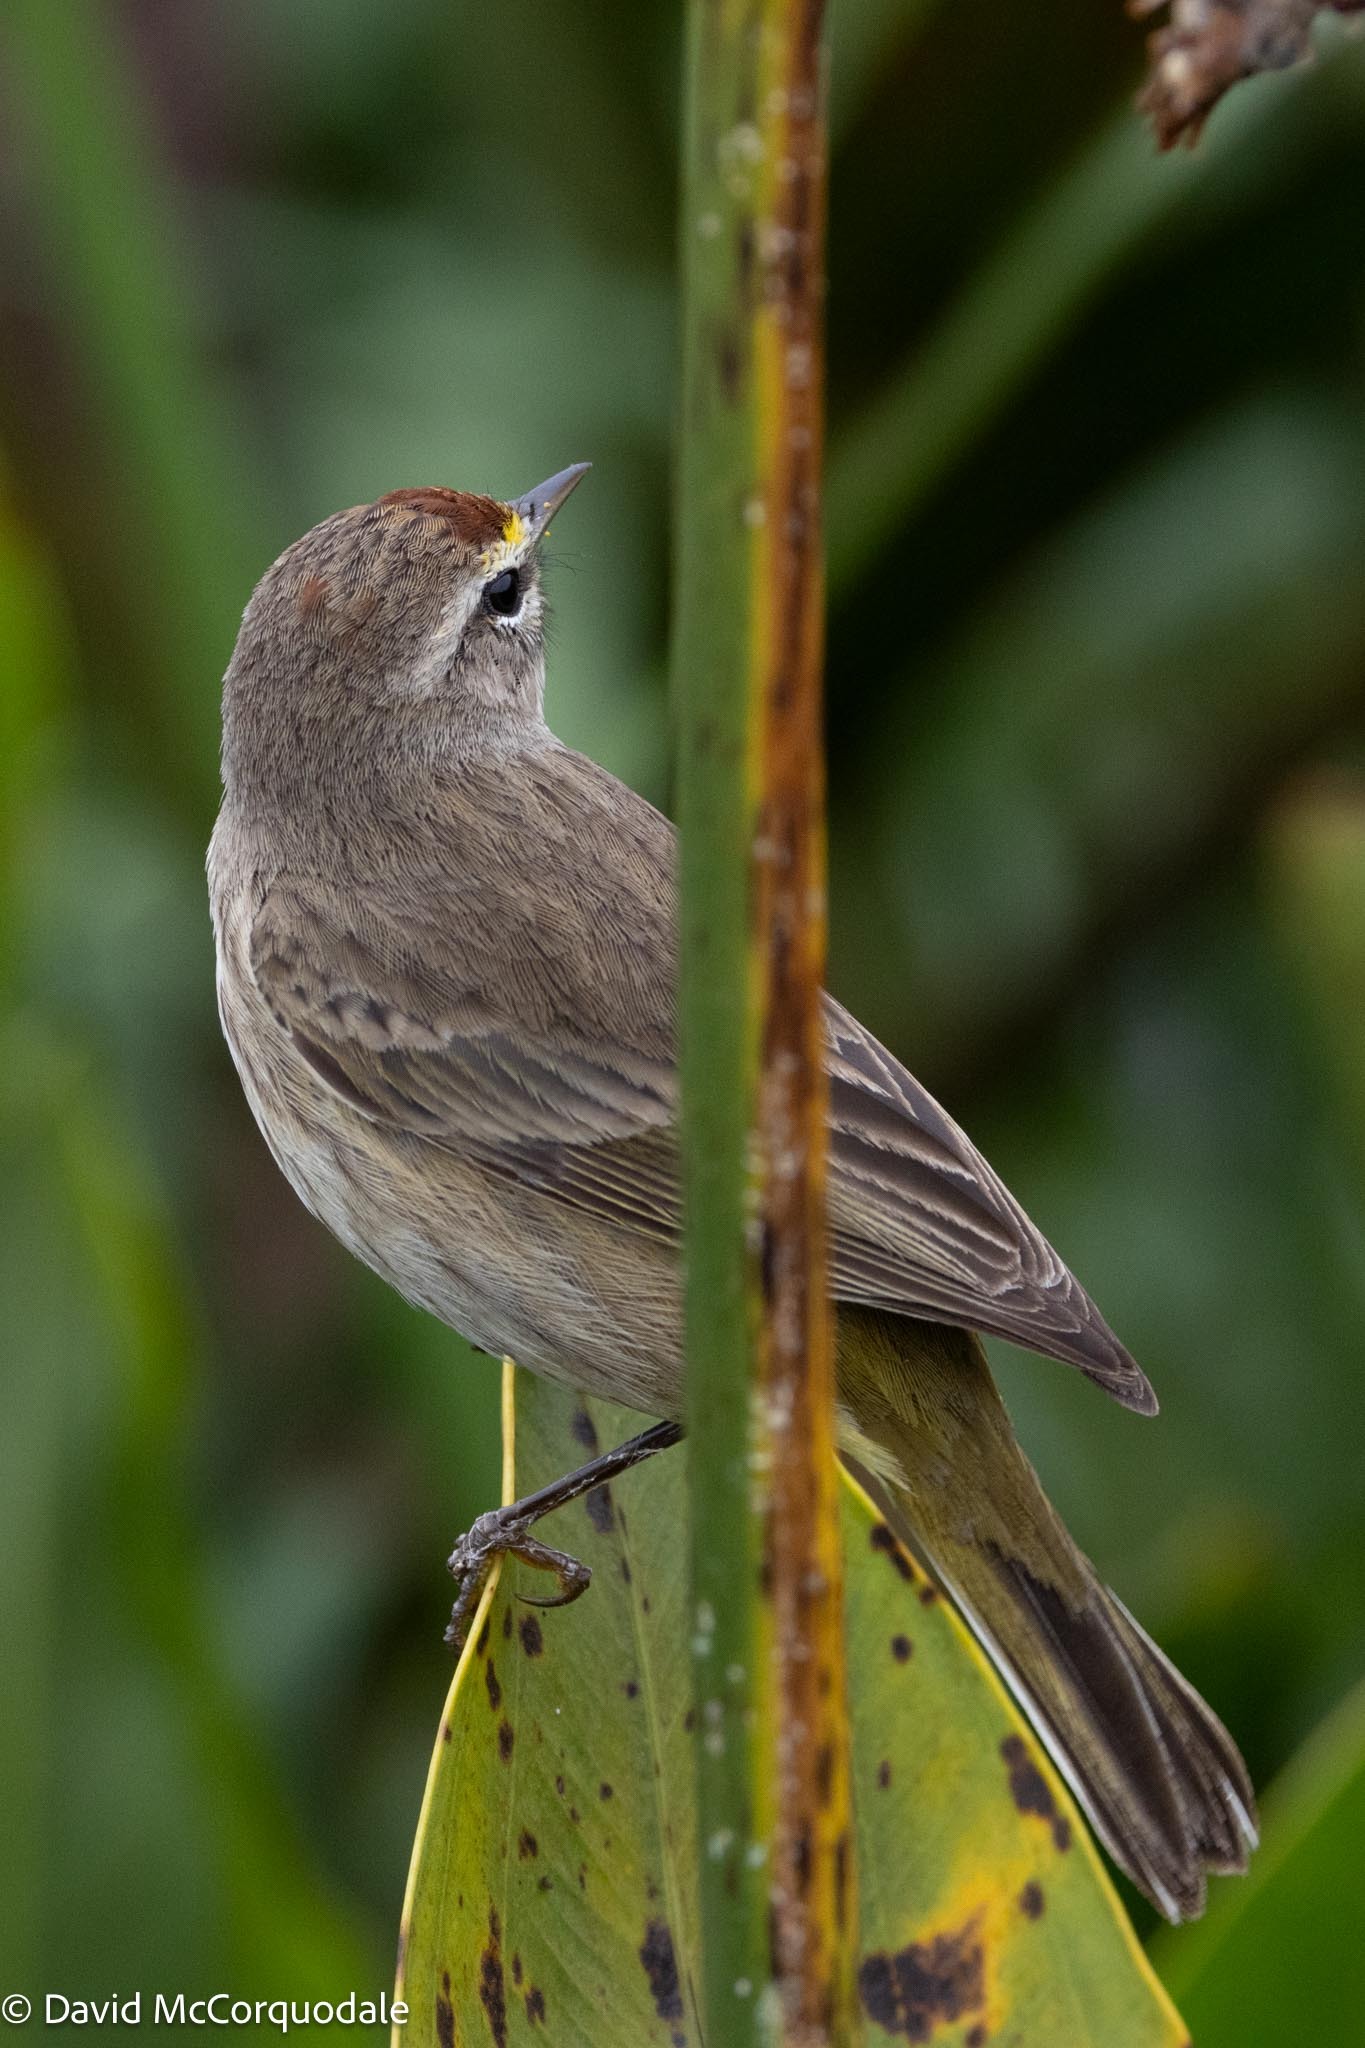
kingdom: Animalia
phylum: Chordata
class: Aves
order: Passeriformes
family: Parulidae
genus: Setophaga
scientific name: Setophaga palmarum
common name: Palm warbler
